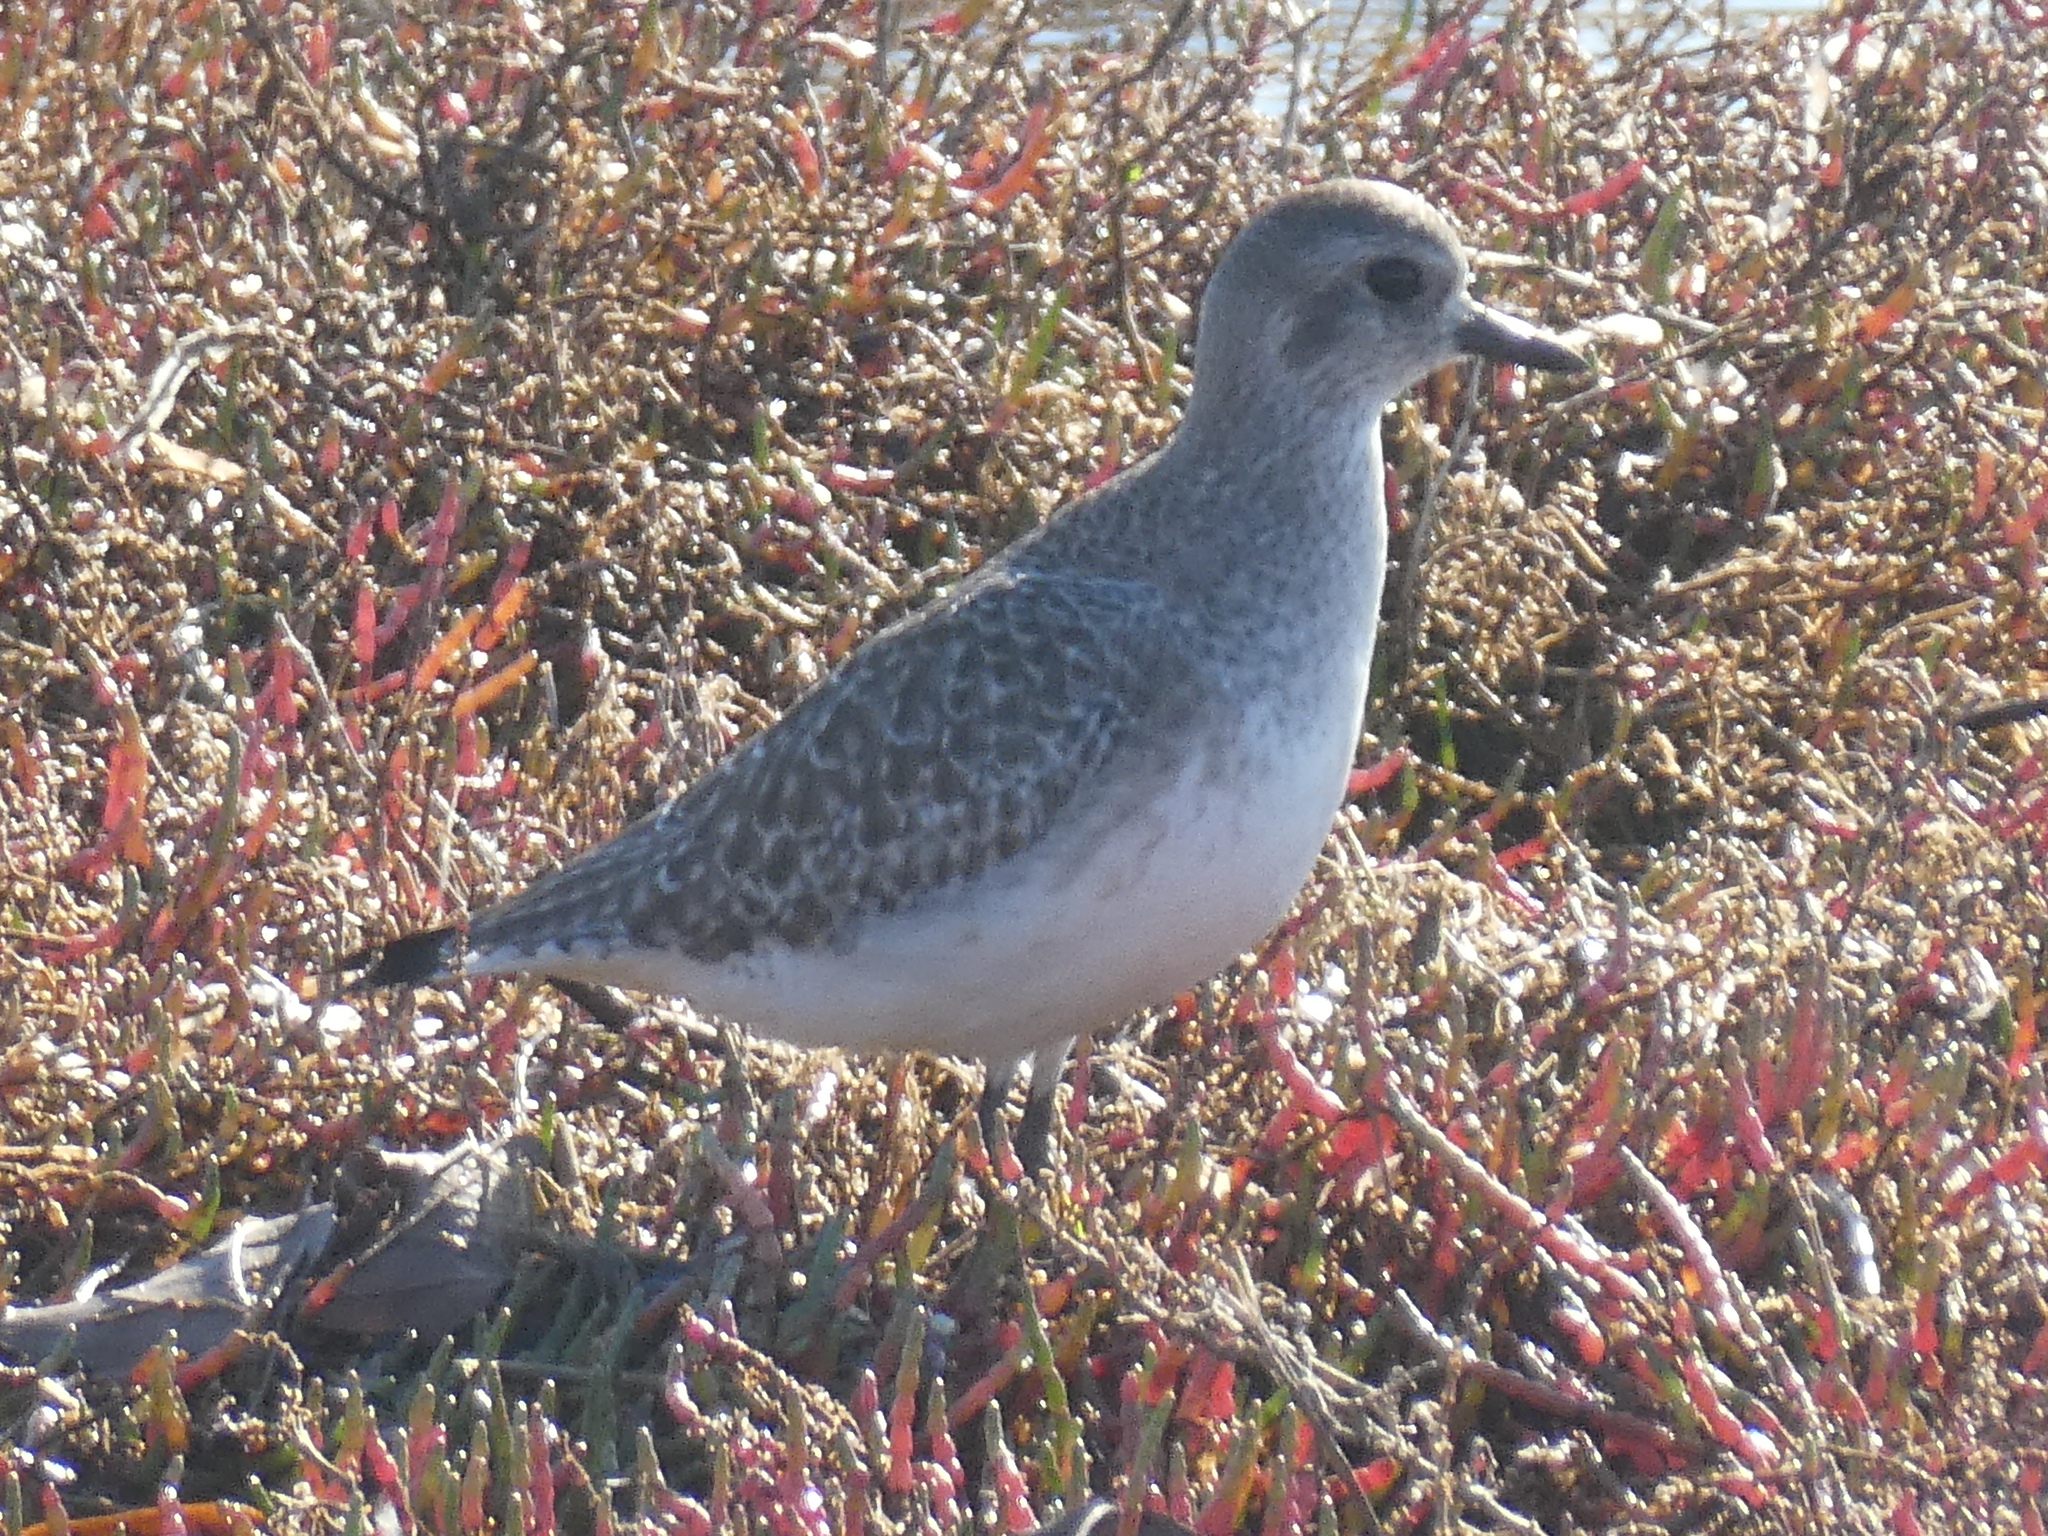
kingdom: Animalia
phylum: Chordata
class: Aves
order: Charadriiformes
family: Charadriidae
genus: Pluvialis
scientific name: Pluvialis squatarola
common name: Grey plover
